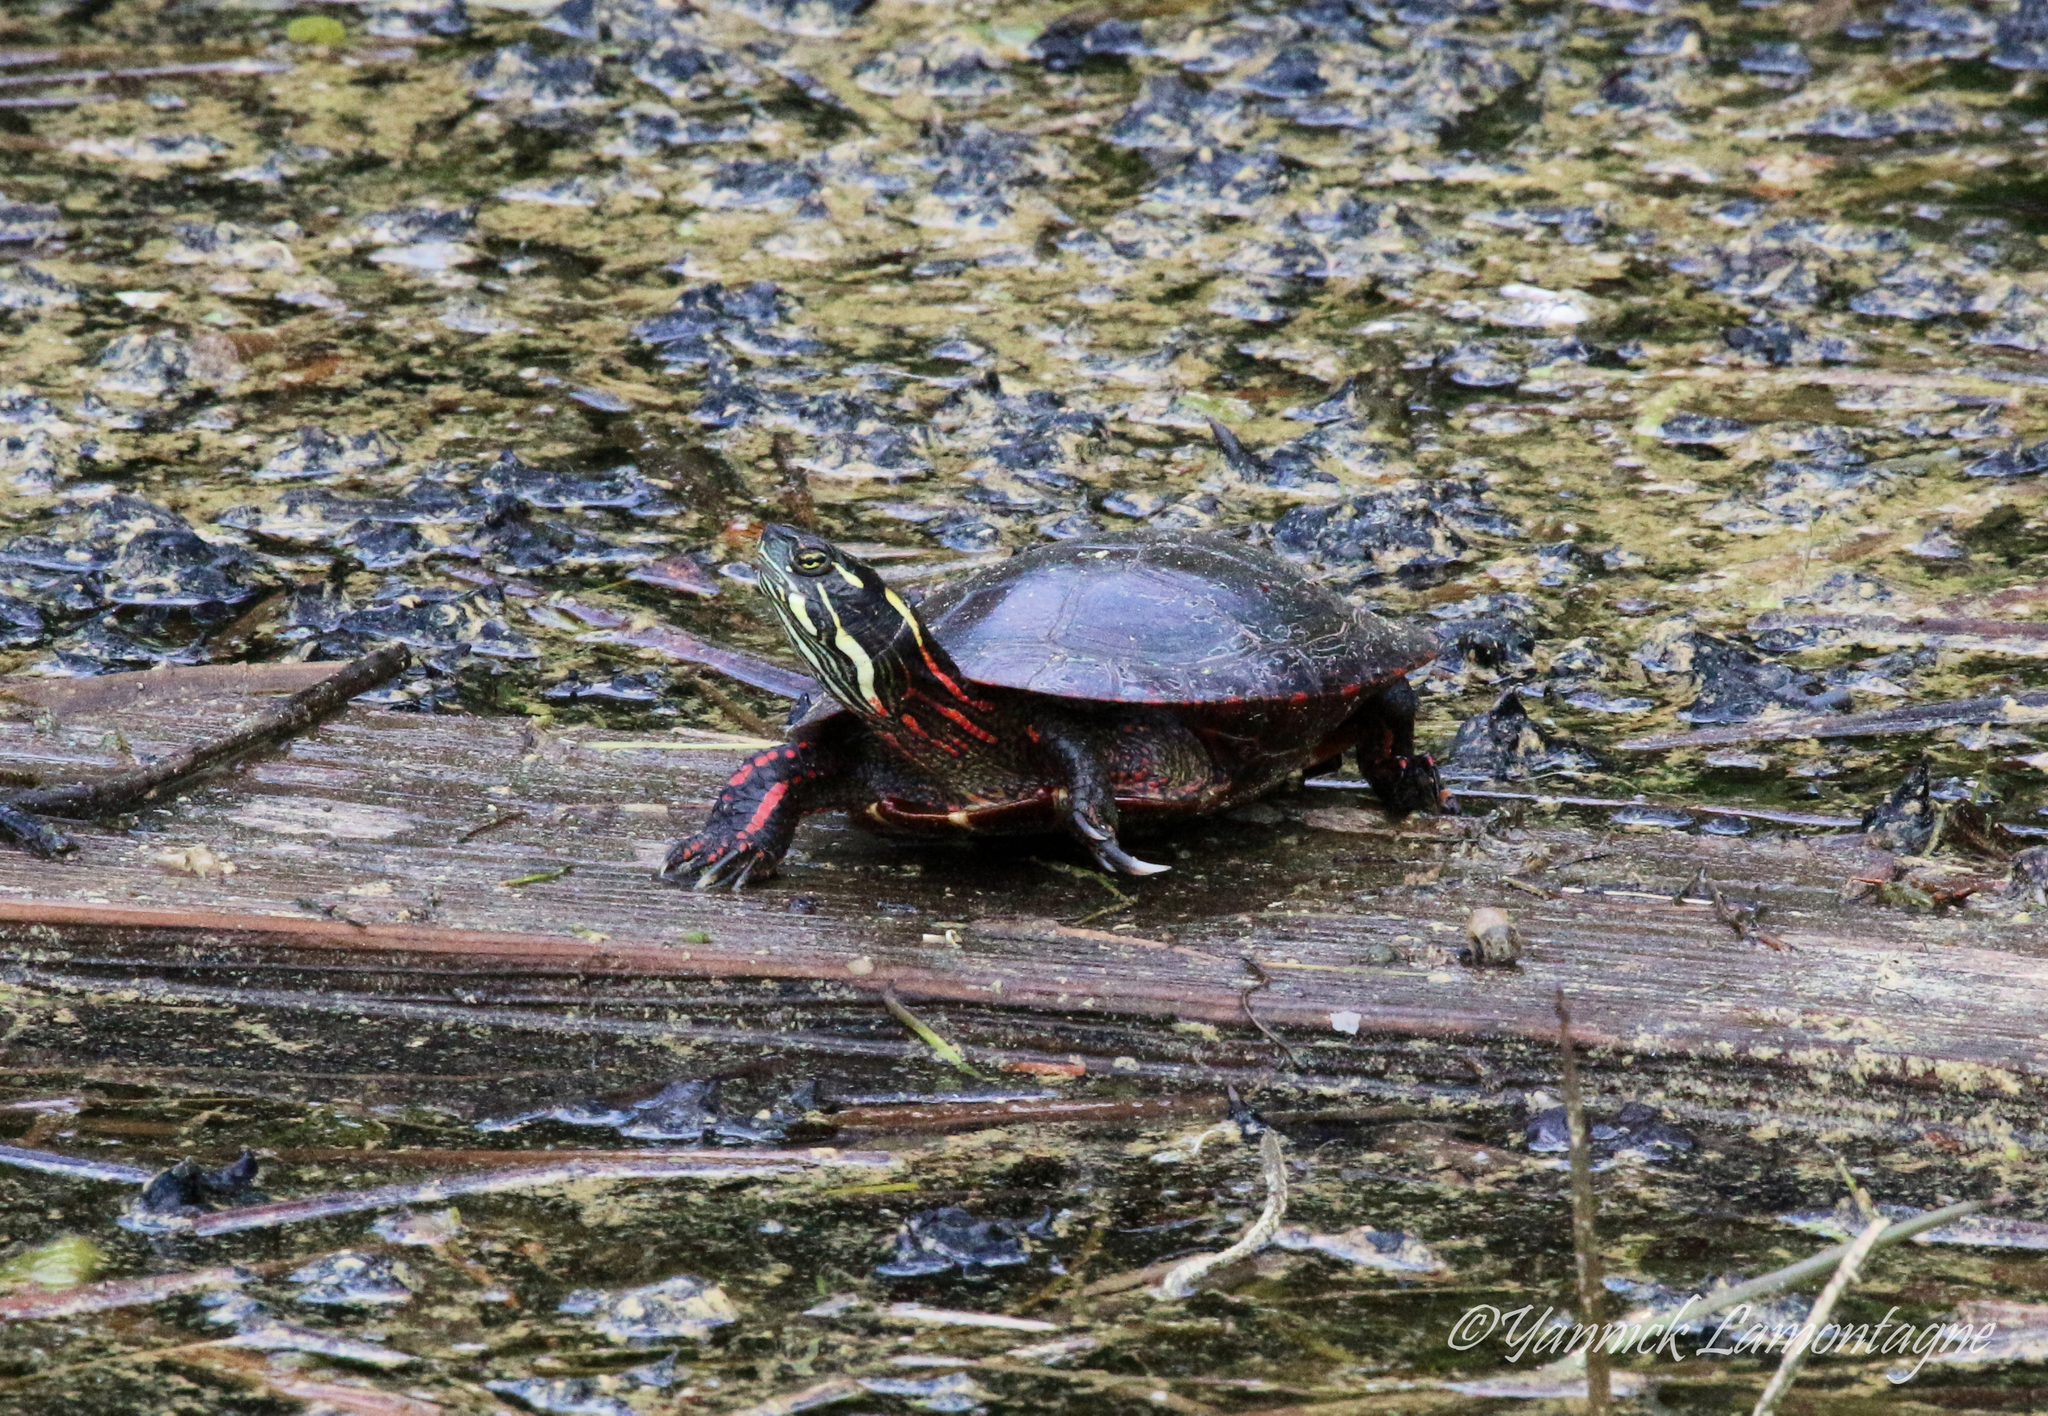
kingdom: Animalia
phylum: Chordata
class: Testudines
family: Emydidae
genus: Chrysemys
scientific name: Chrysemys picta
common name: Painted turtle
